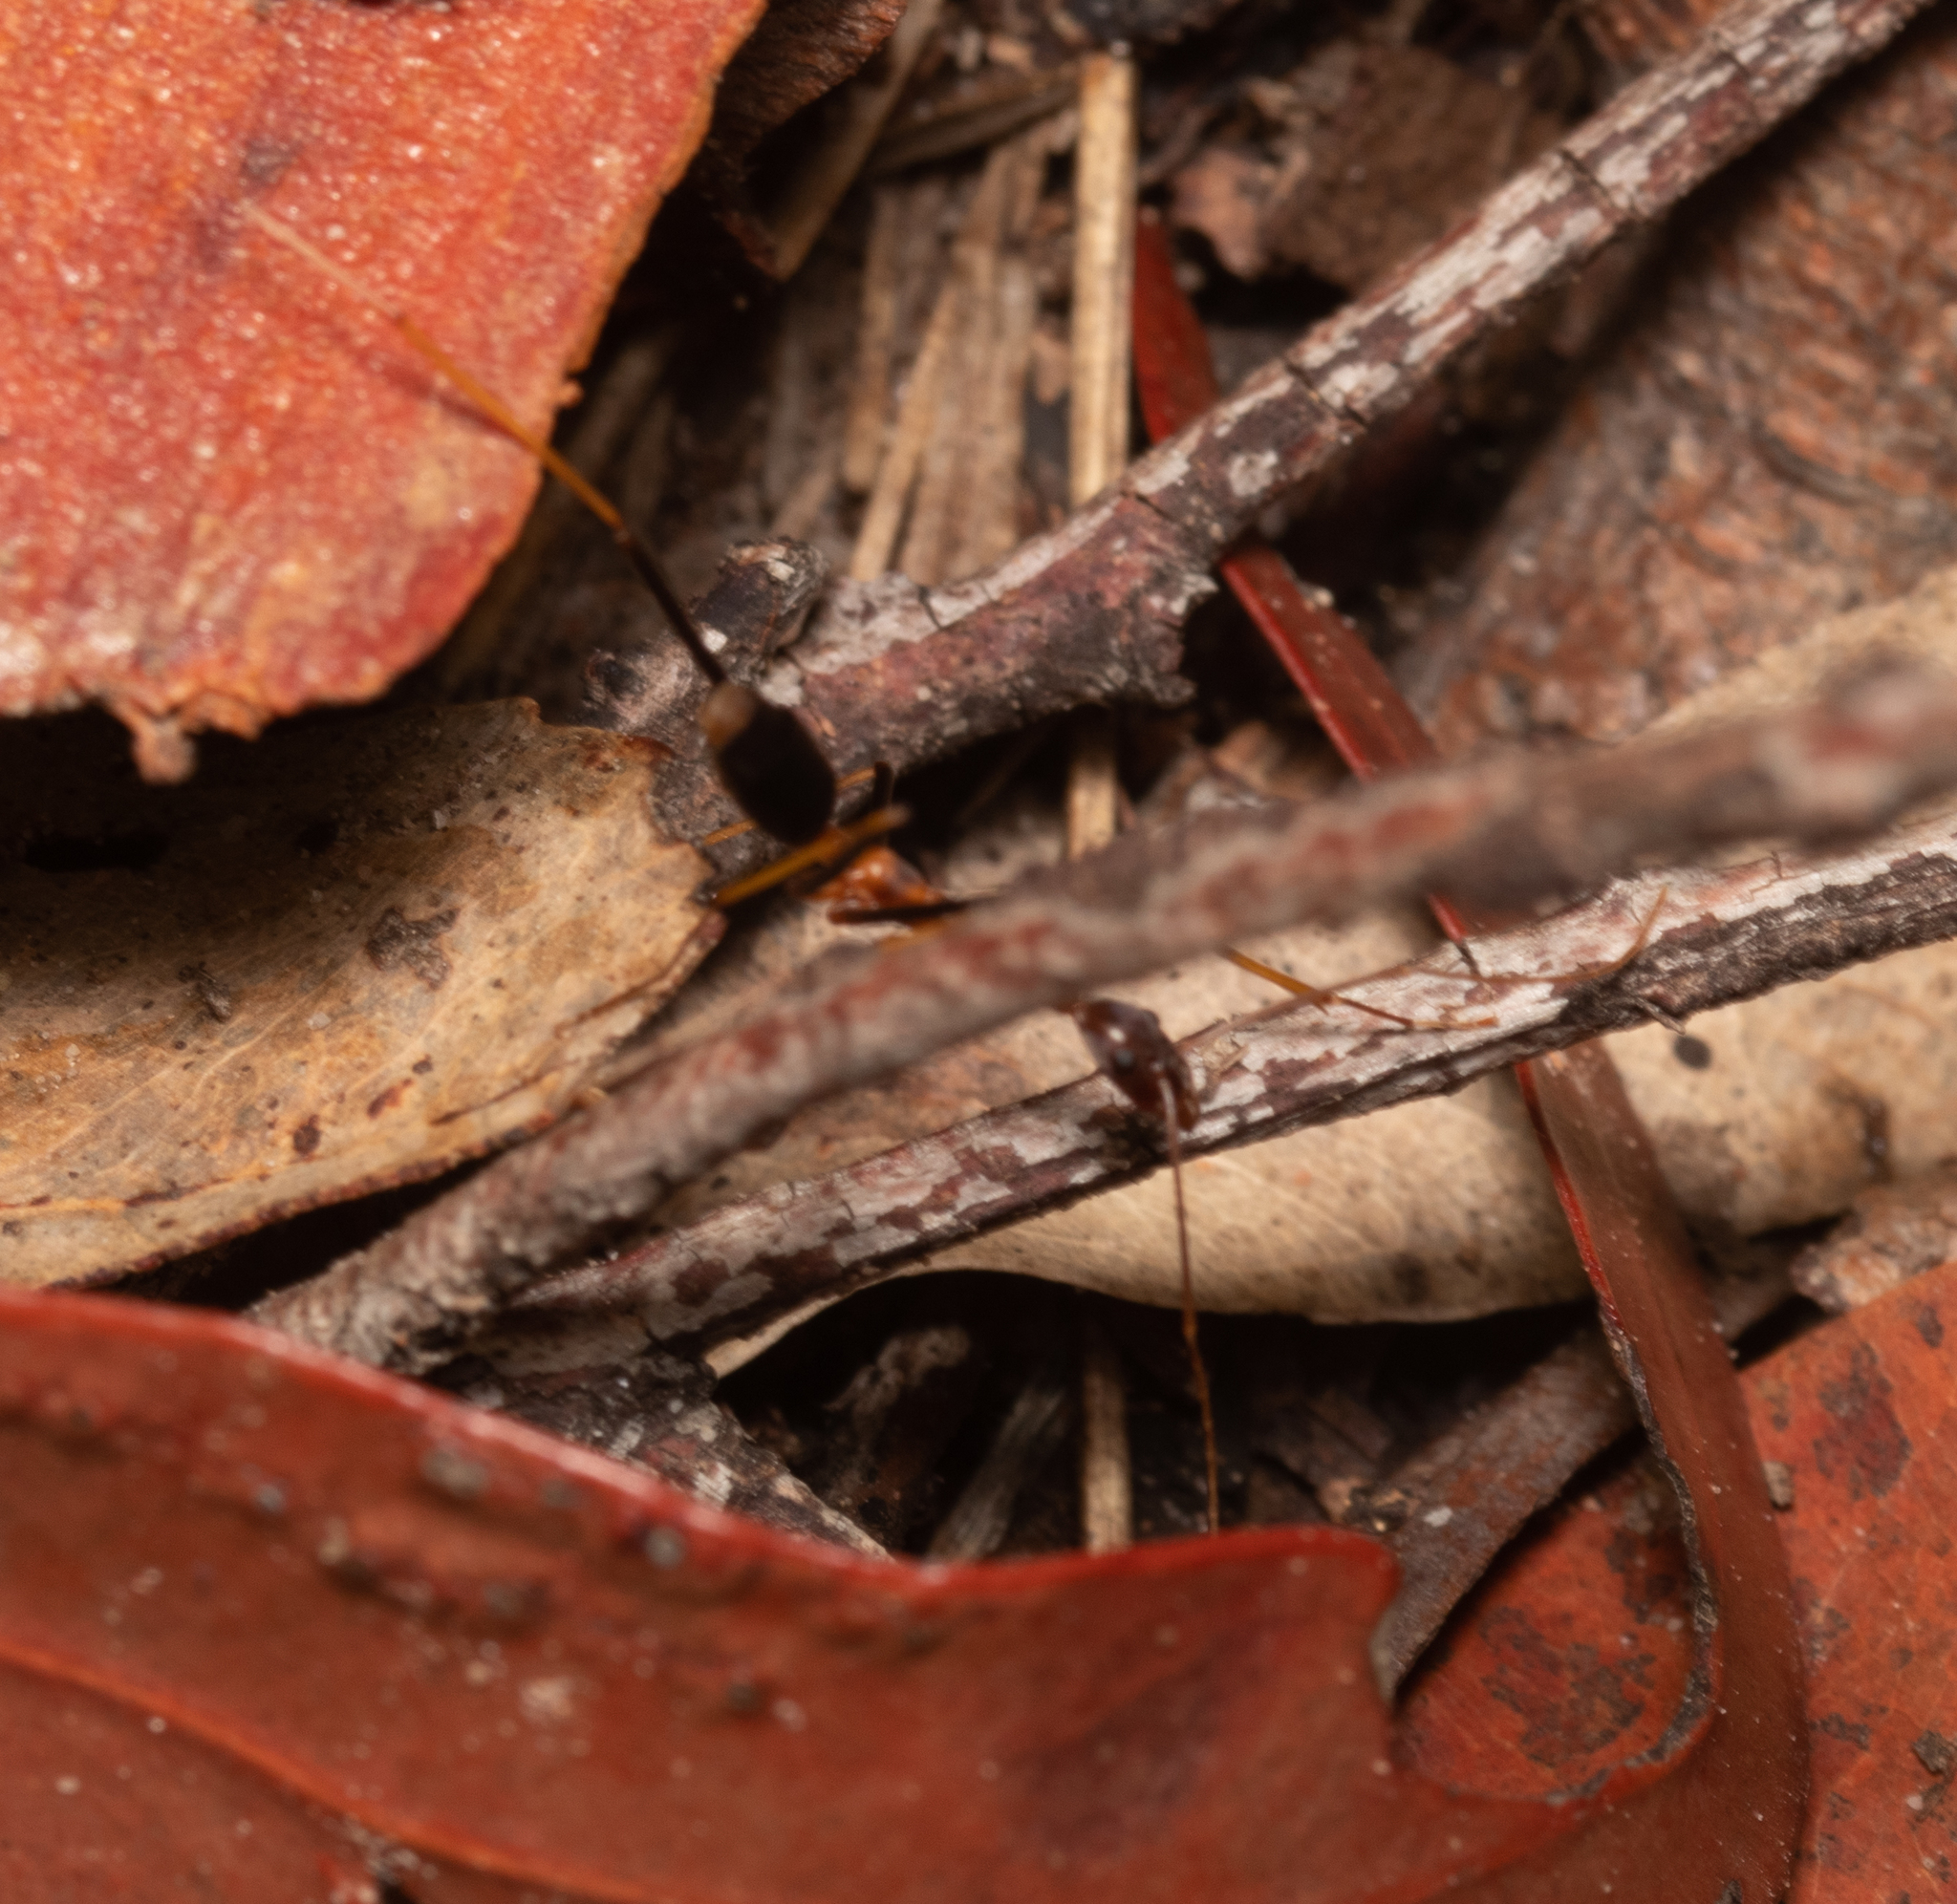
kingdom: Animalia
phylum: Arthropoda
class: Insecta
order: Hymenoptera
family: Formicidae
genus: Leptomyrmex
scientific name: Leptomyrmex rothneyi
